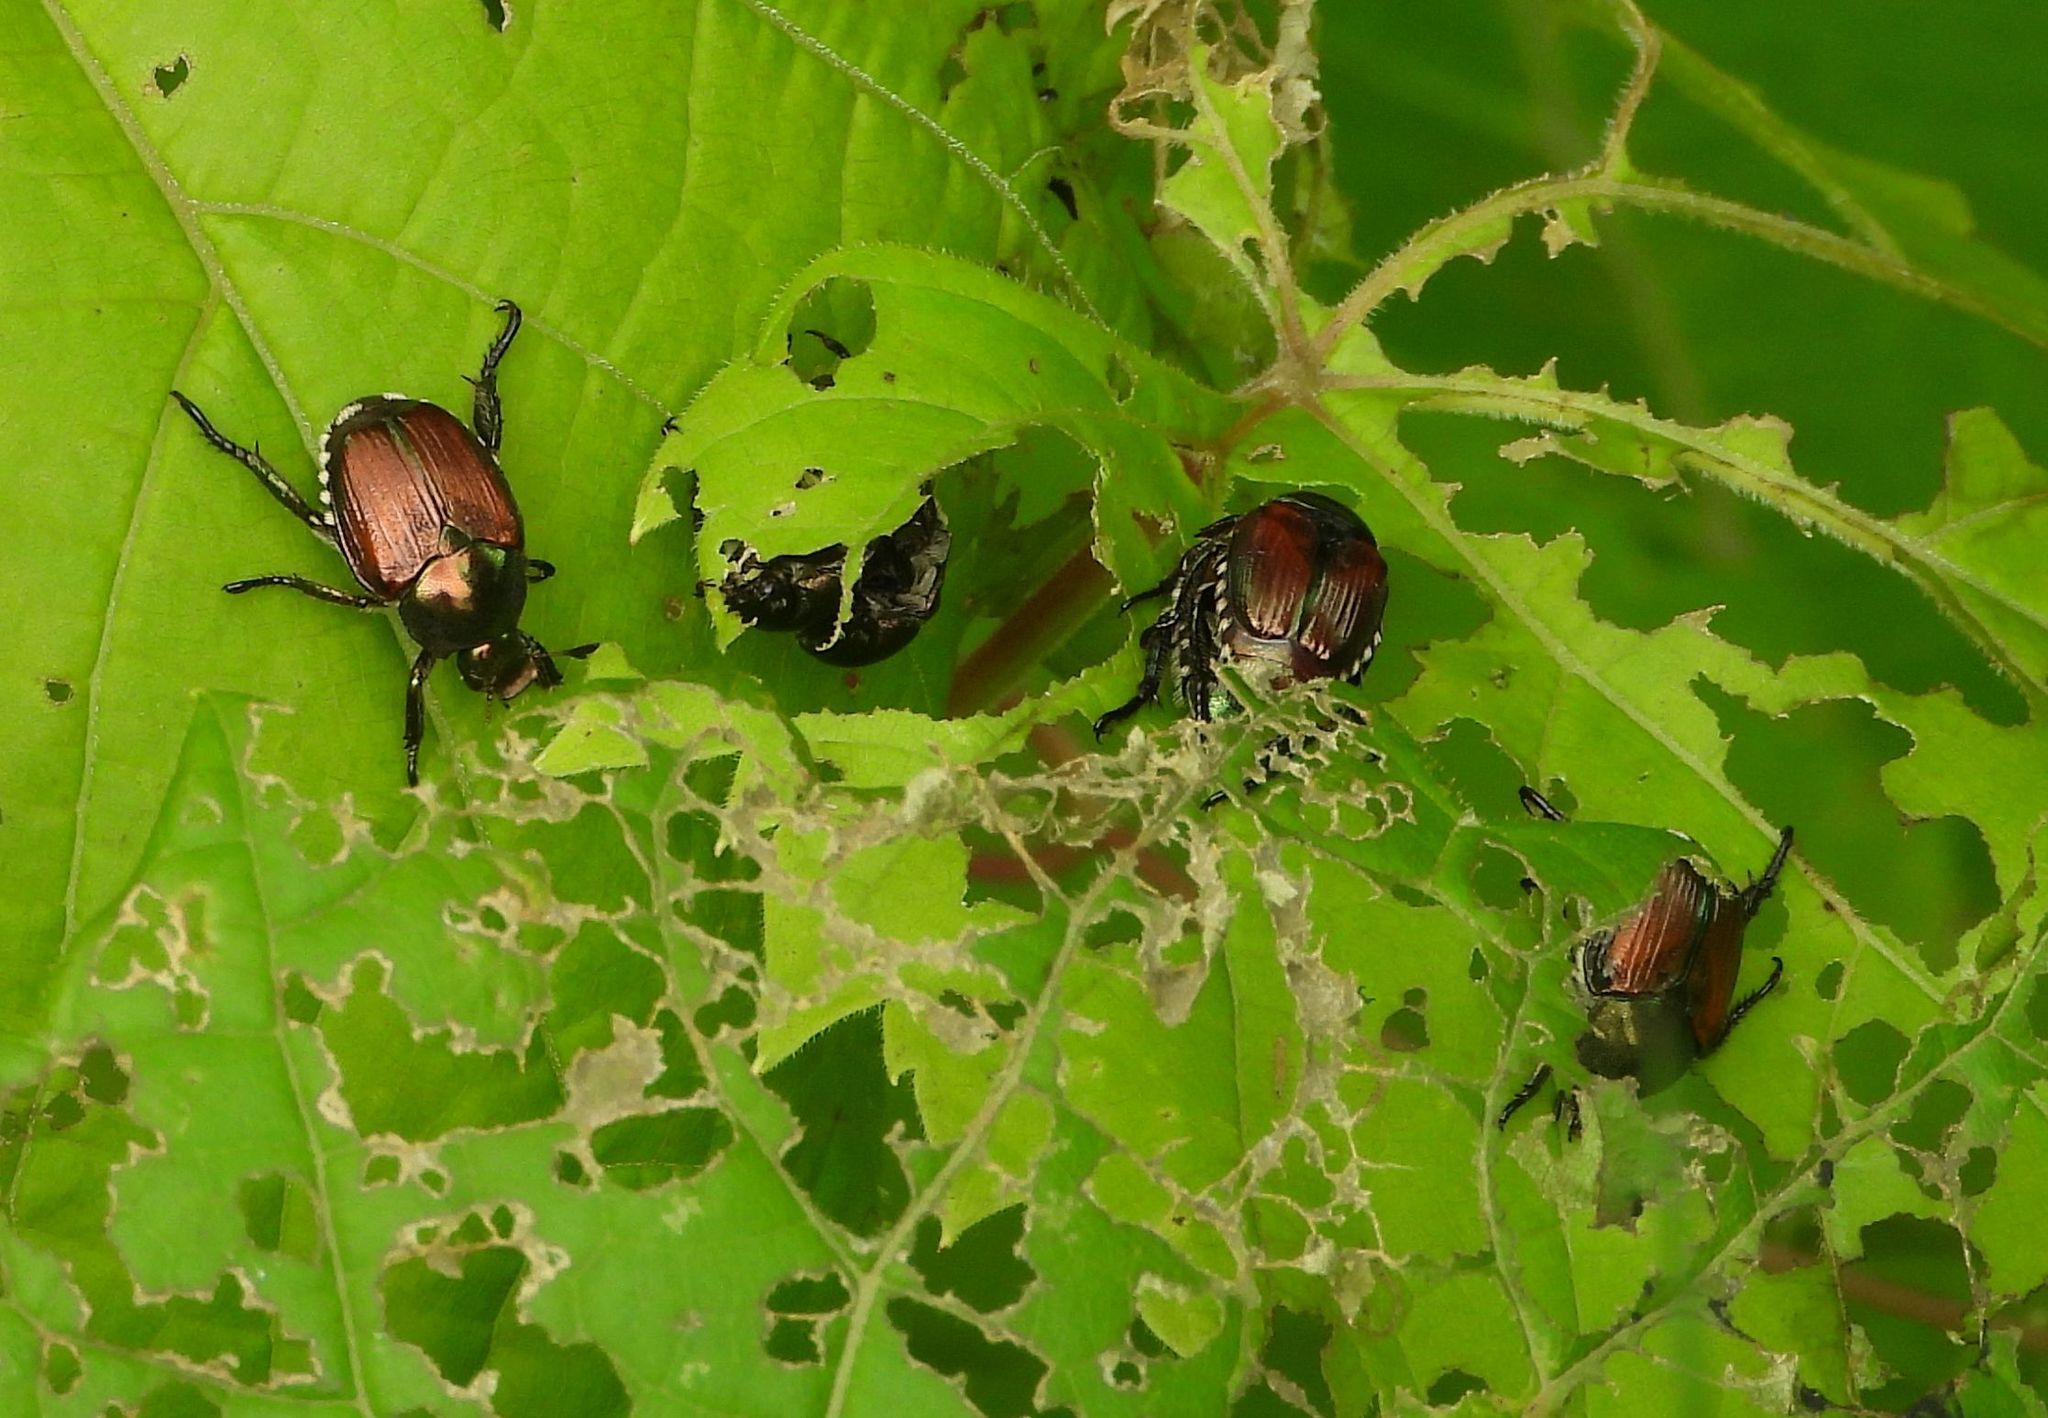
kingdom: Animalia
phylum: Arthropoda
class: Insecta
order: Coleoptera
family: Scarabaeidae
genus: Popillia
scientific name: Popillia japonica
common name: Japanese beetle
